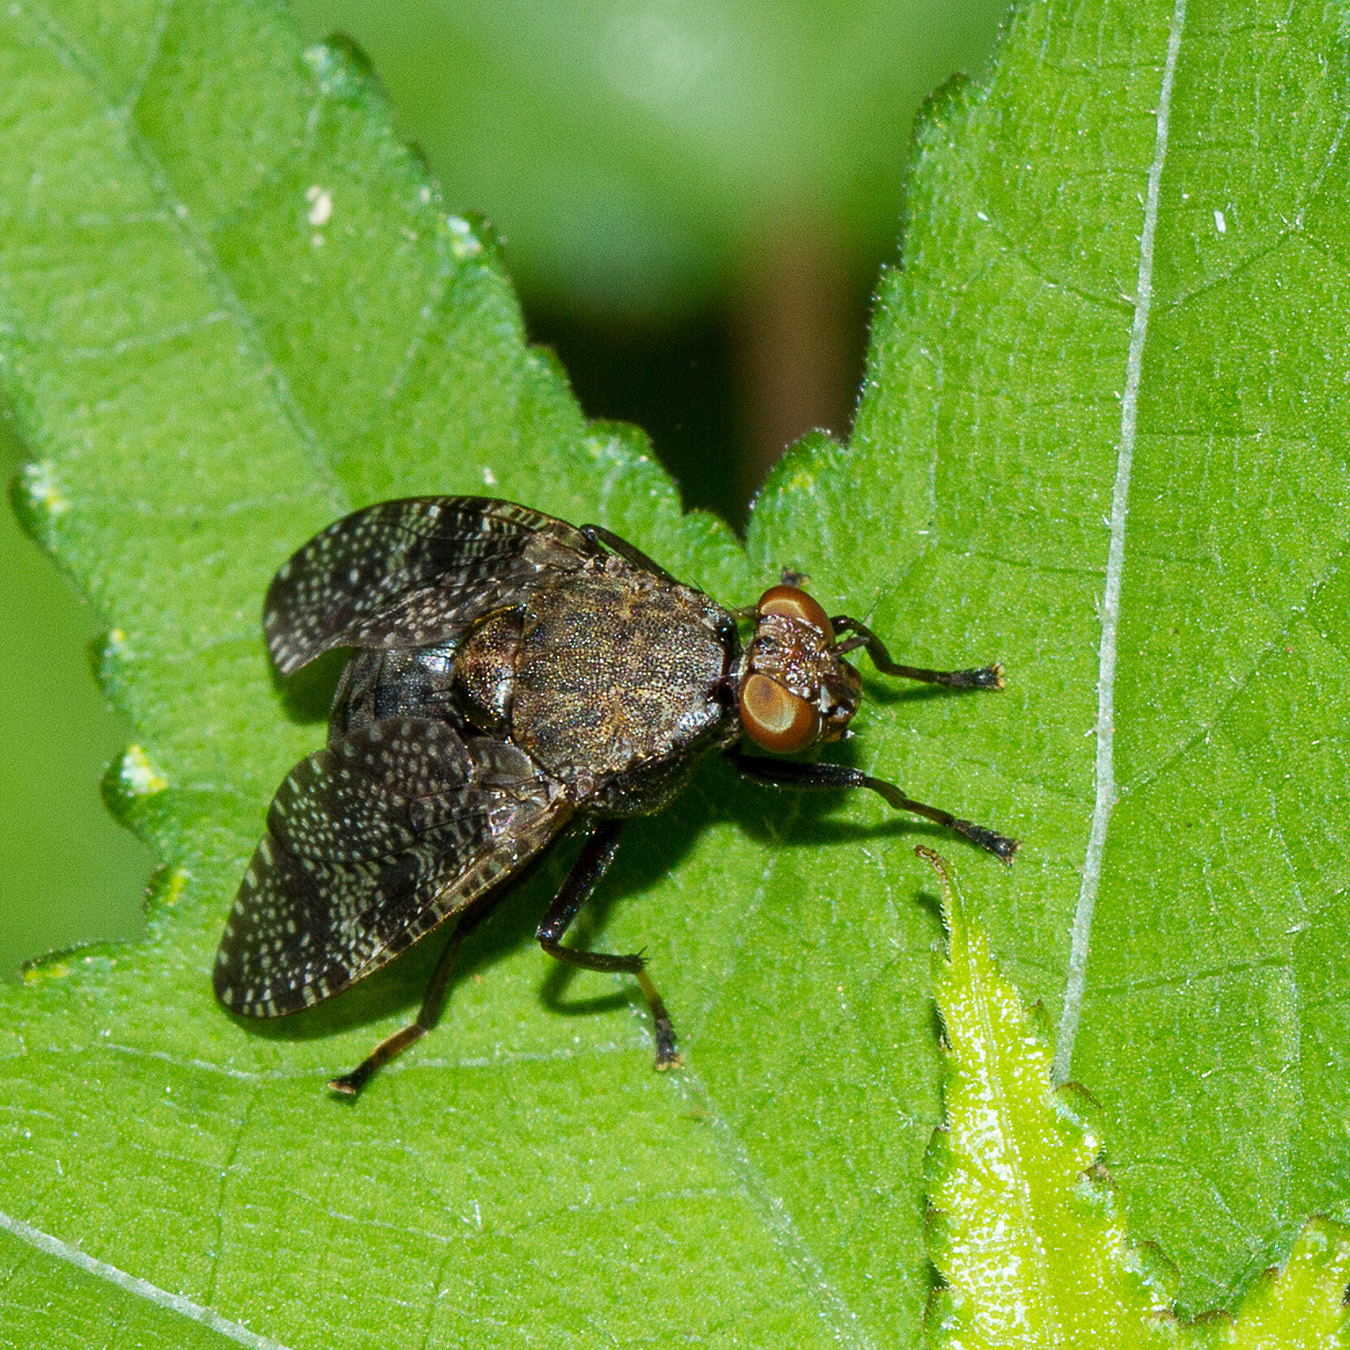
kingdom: Animalia
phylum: Arthropoda
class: Insecta
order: Diptera
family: Platystomatidae
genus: Lophoplatystoma
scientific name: Lophoplatystoma acarigerum
